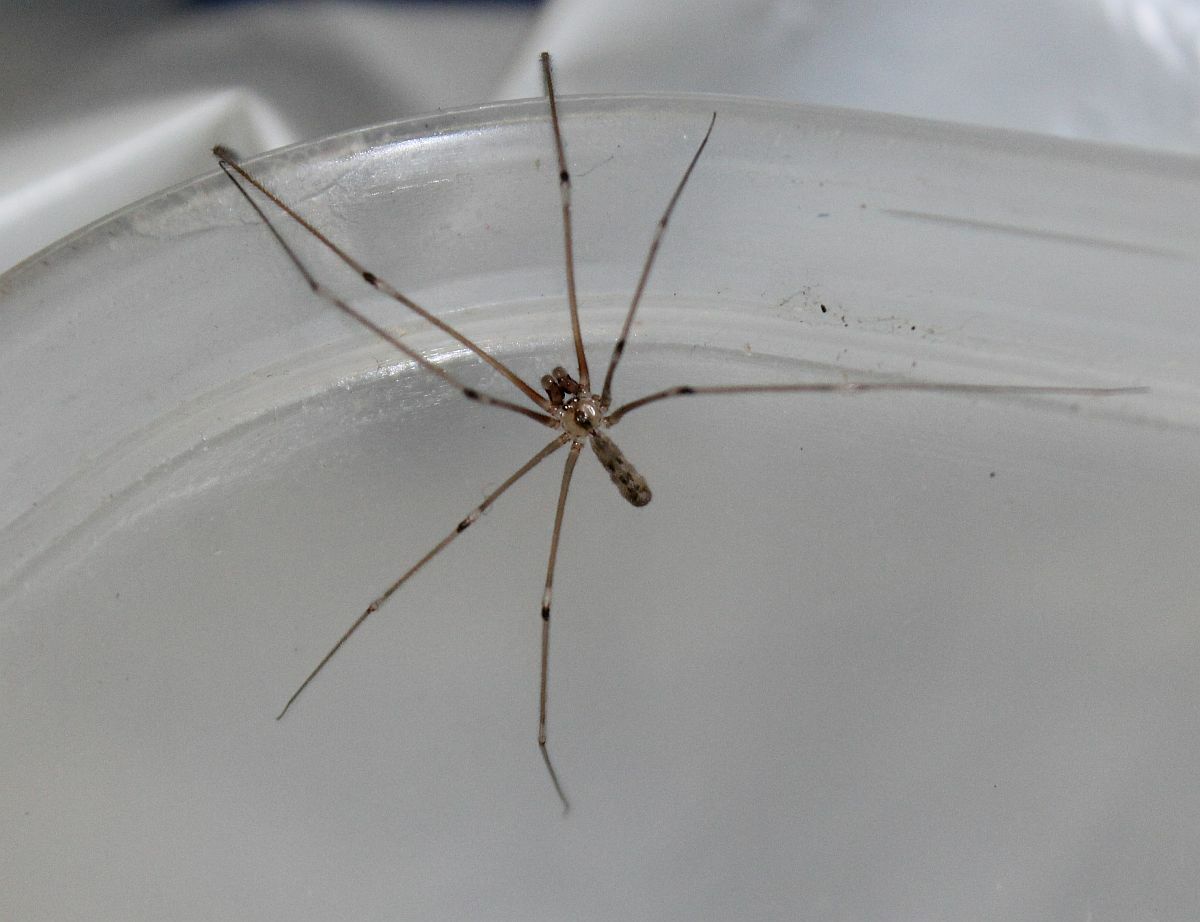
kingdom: Animalia
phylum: Arthropoda
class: Arachnida
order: Araneae
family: Pholcidae
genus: Pholcus
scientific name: Pholcus phalangioides
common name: Longbodied cellar spider
